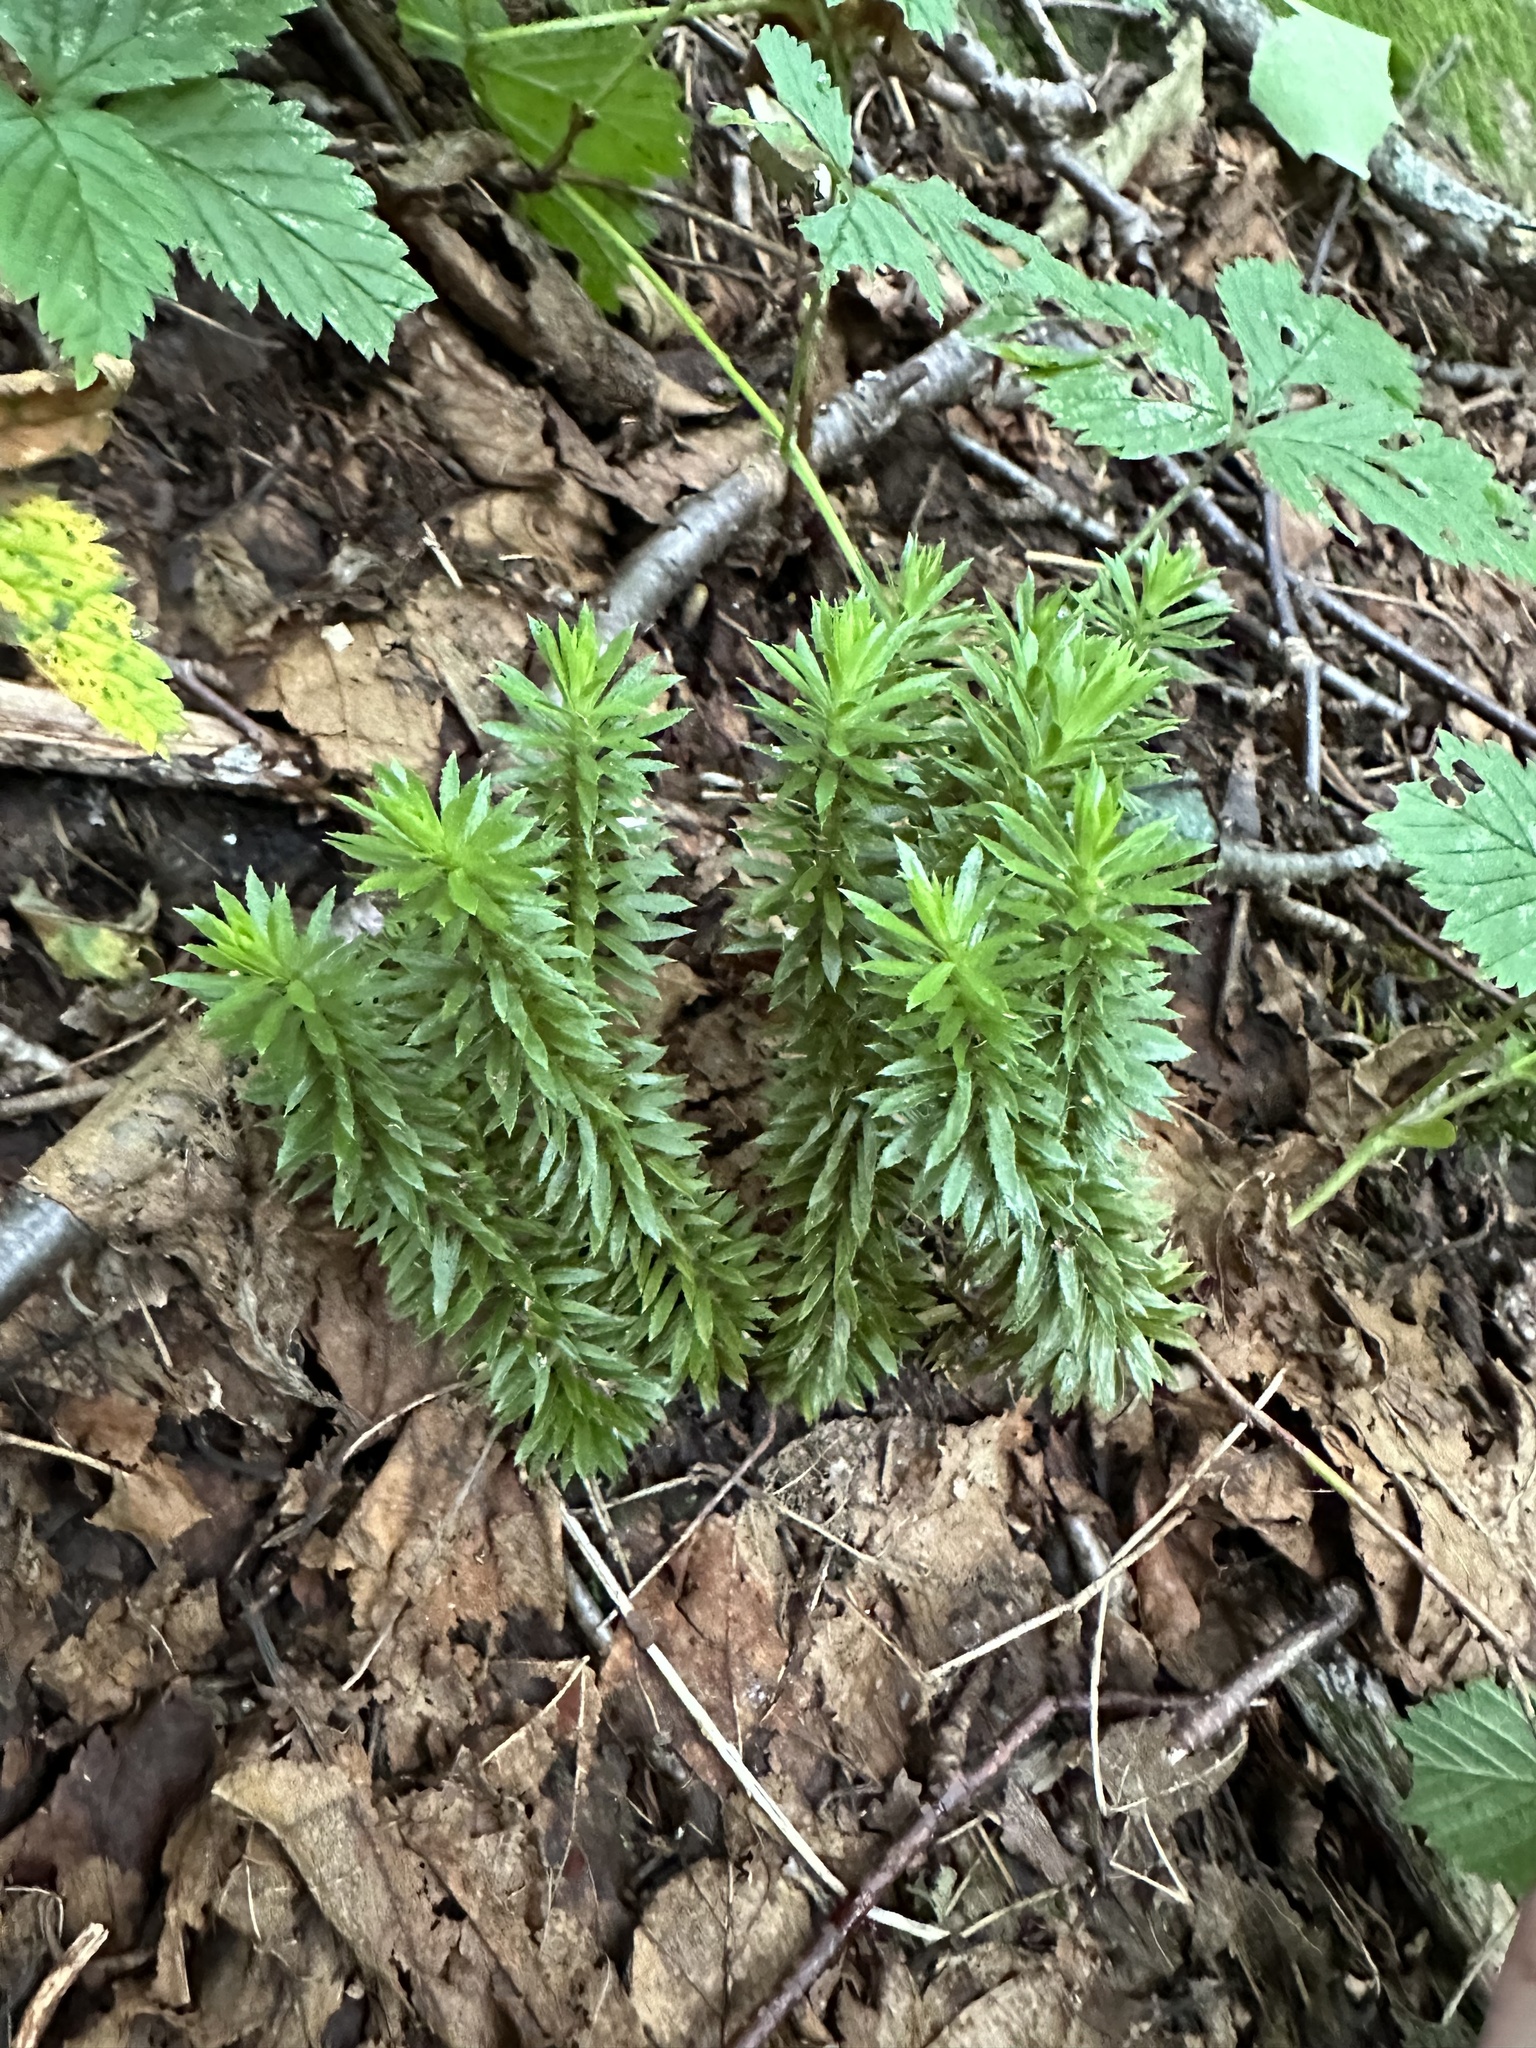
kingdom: Plantae
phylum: Tracheophyta
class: Lycopodiopsida
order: Lycopodiales
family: Lycopodiaceae
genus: Huperzia
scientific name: Huperzia lucidula
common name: Shining clubmoss
